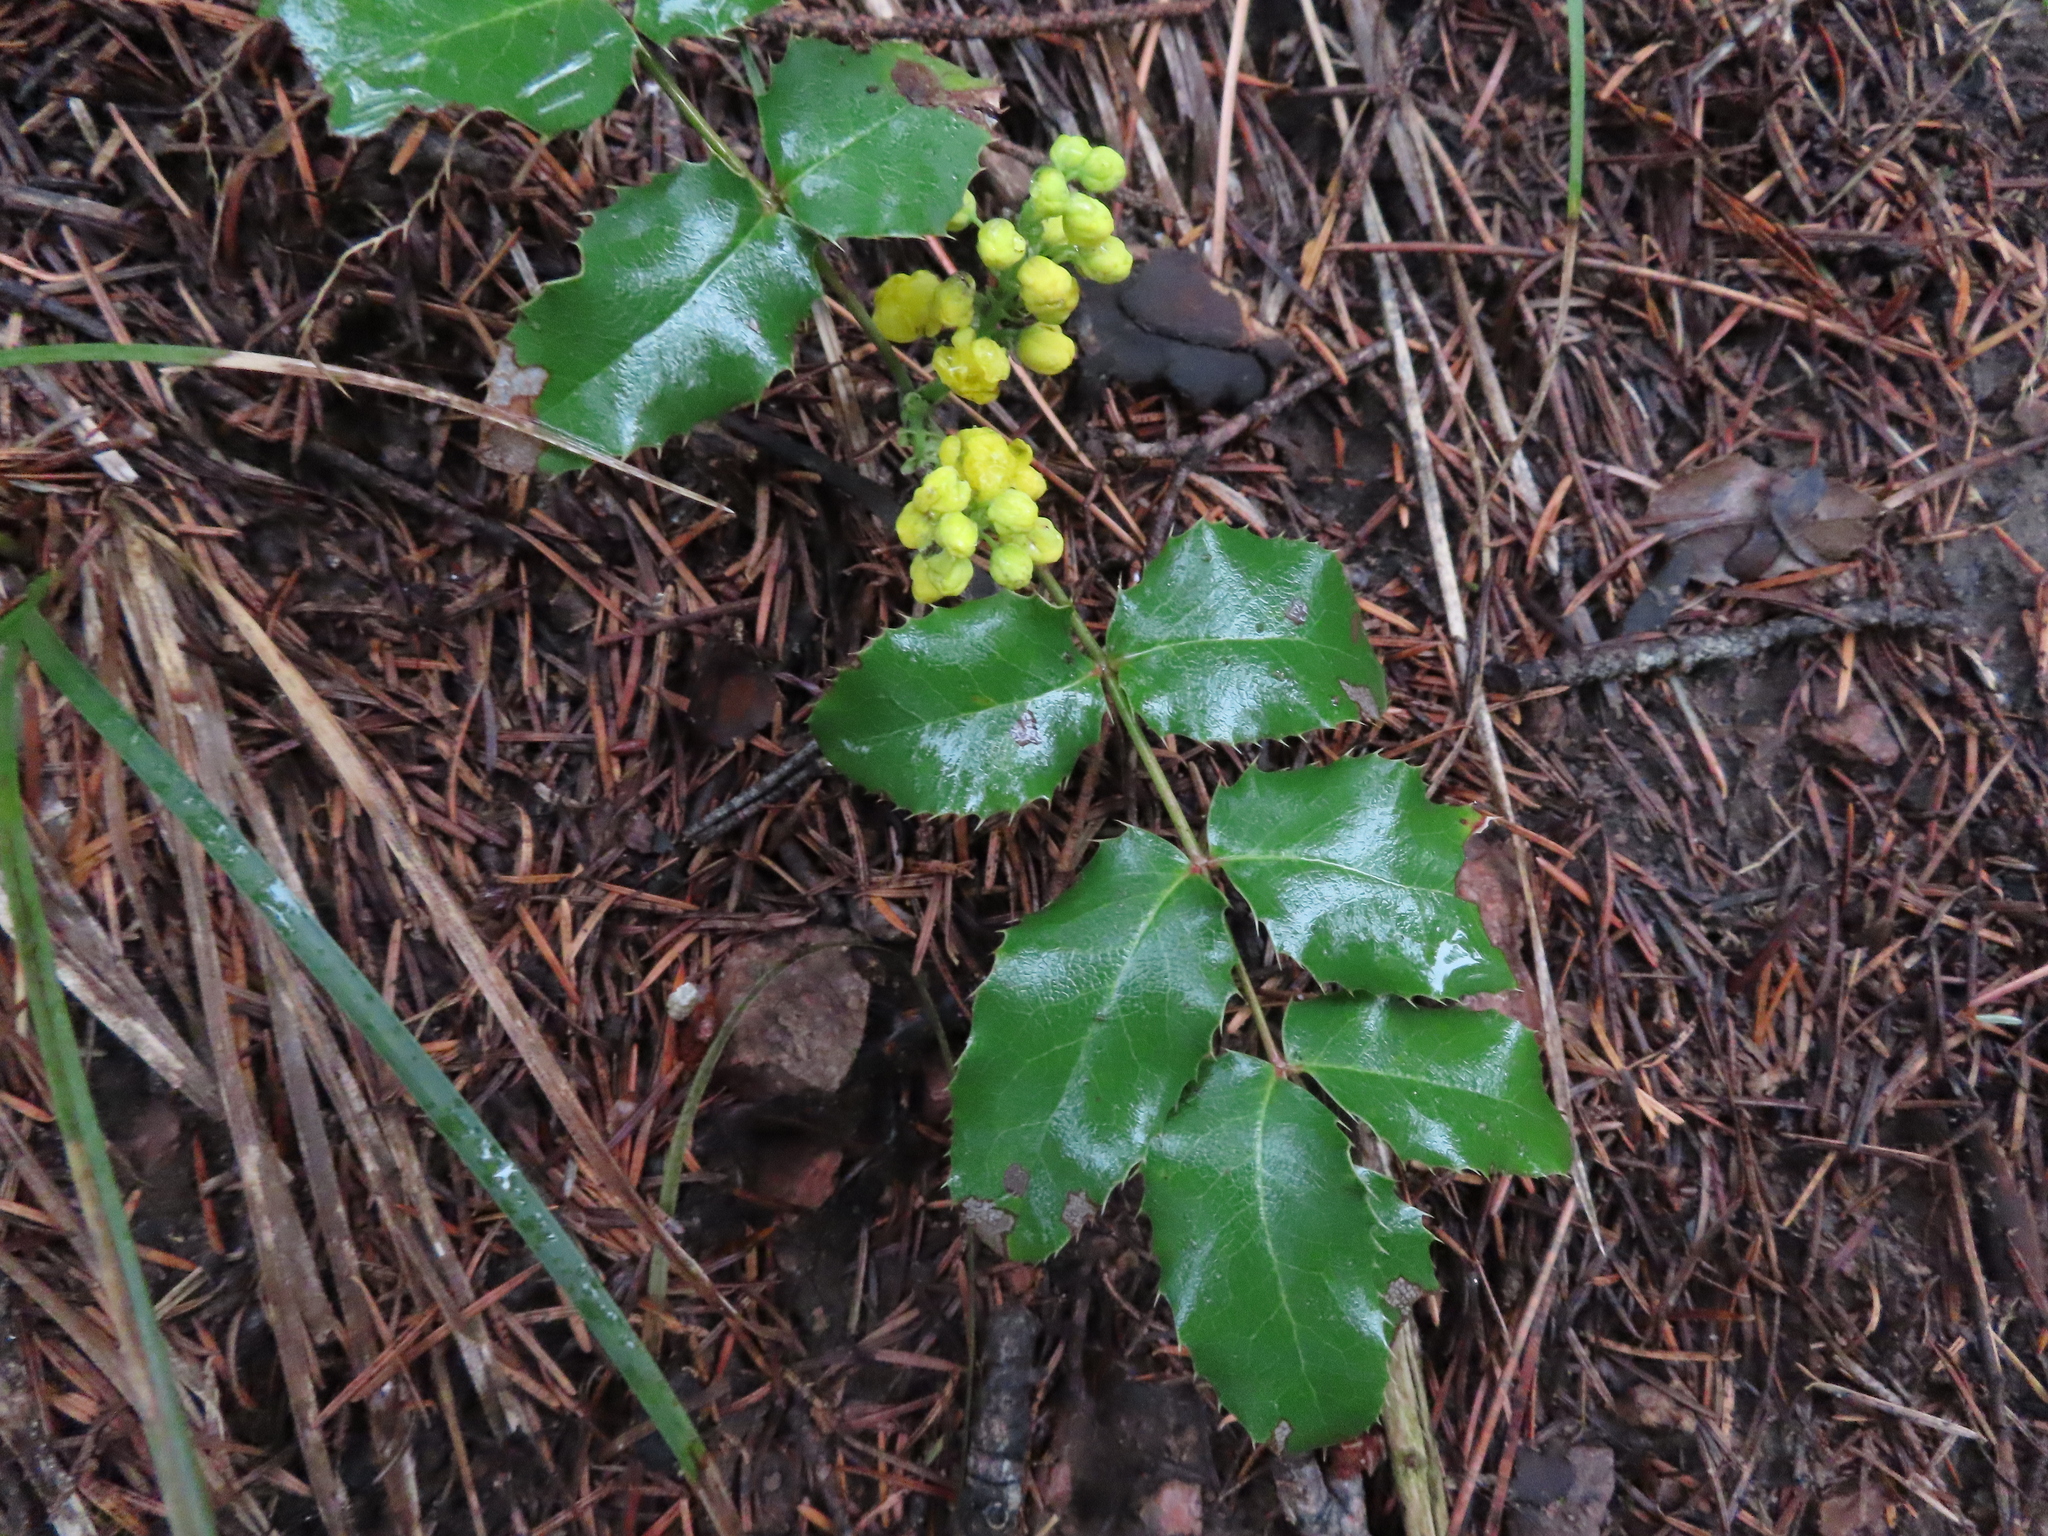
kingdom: Plantae
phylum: Tracheophyta
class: Magnoliopsida
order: Ranunculales
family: Berberidaceae
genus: Mahonia
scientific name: Mahonia repens
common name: Creeping oregon-grape
